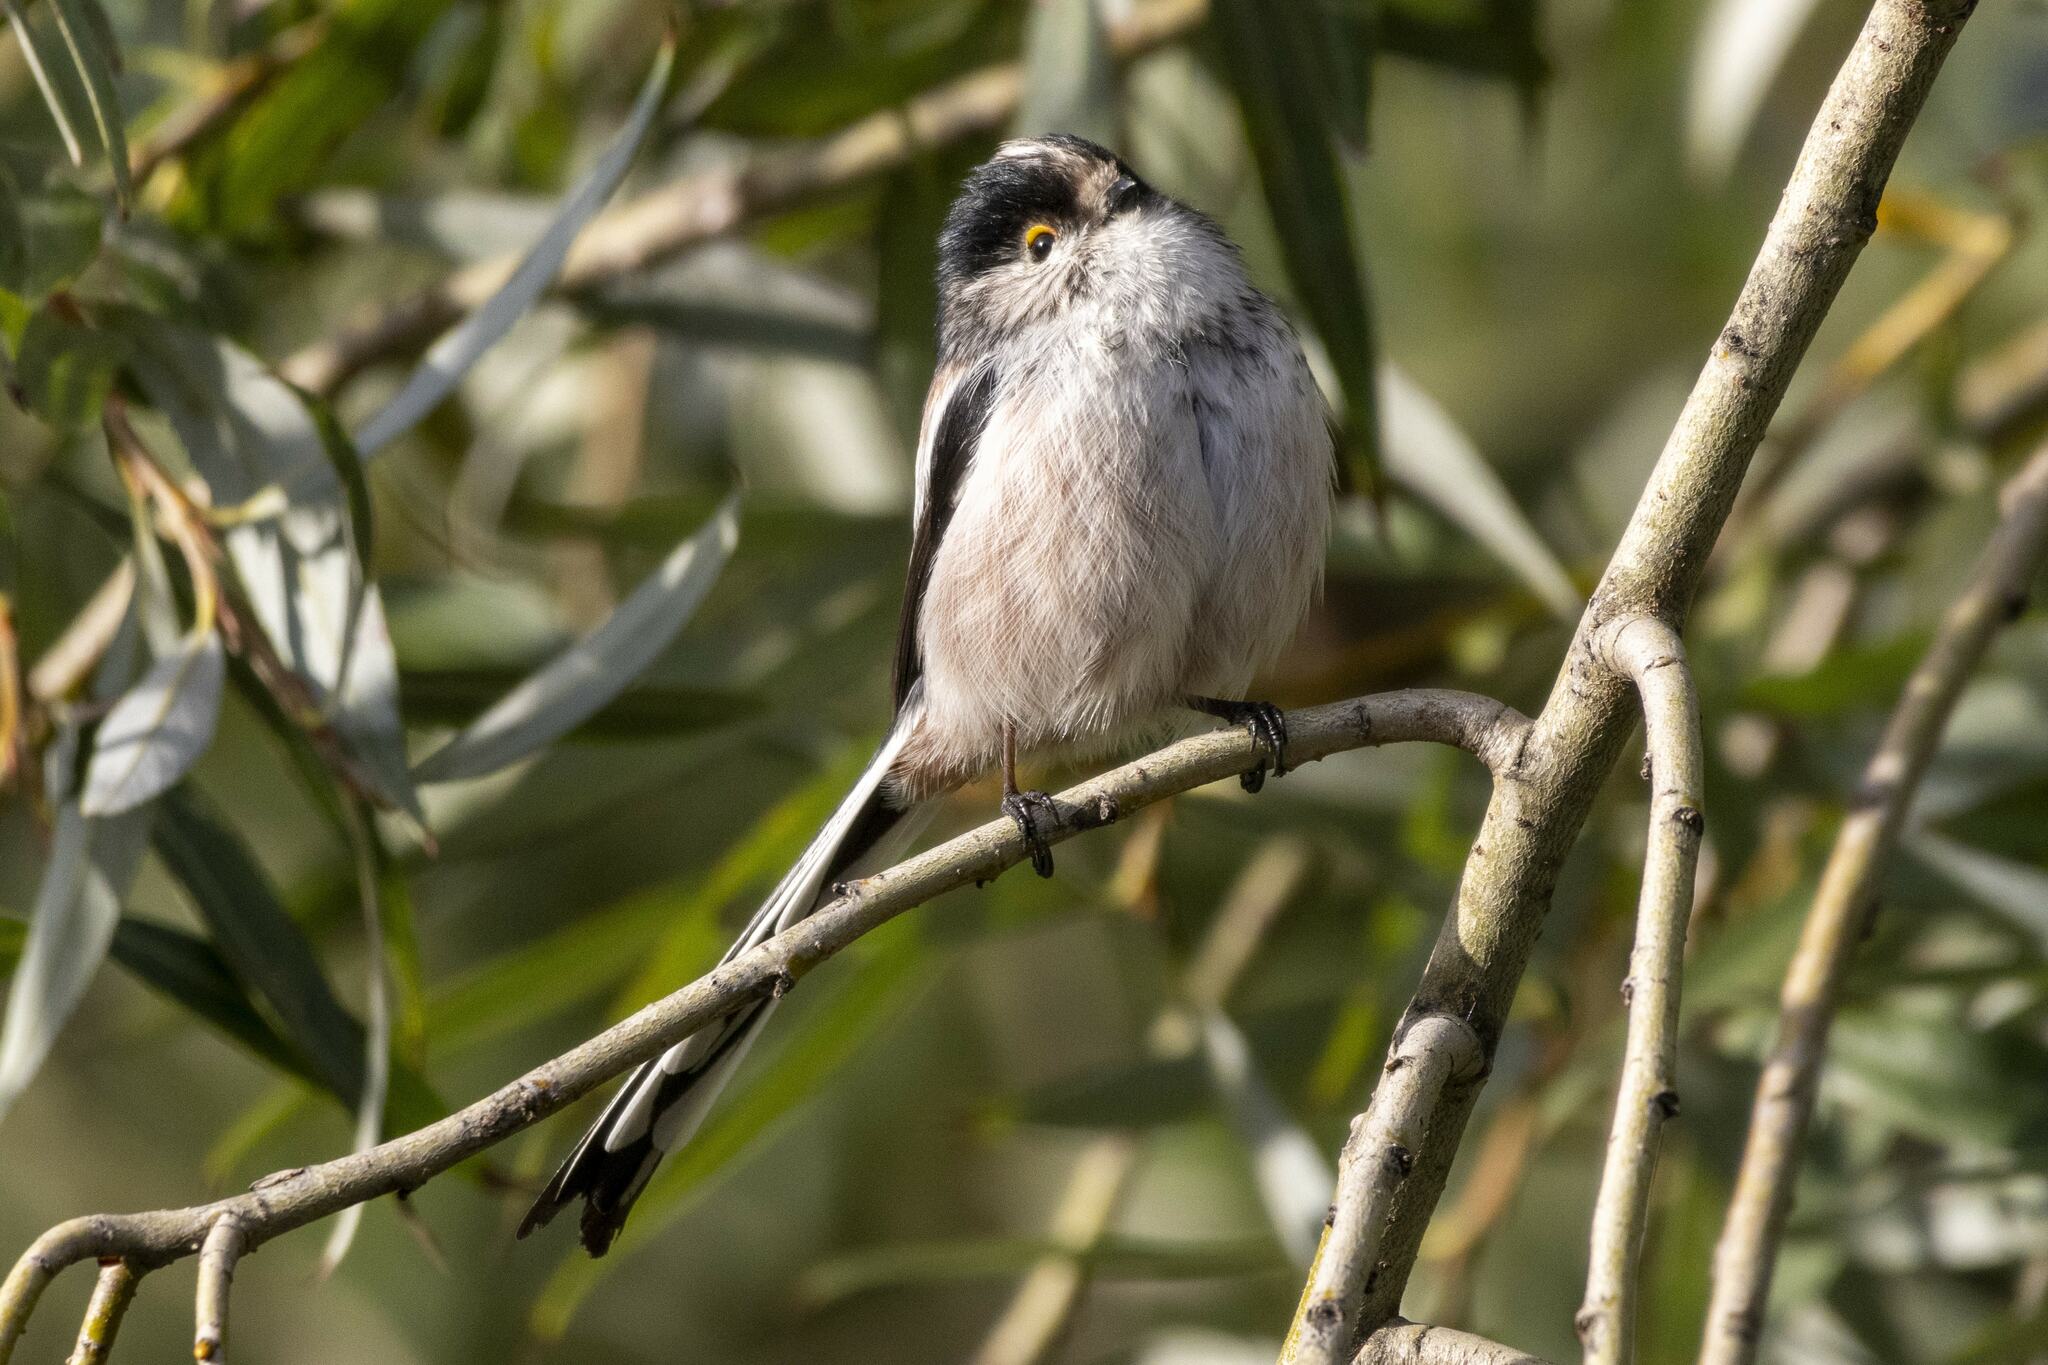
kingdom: Animalia
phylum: Chordata
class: Aves
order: Passeriformes
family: Aegithalidae
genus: Aegithalos
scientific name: Aegithalos caudatus
